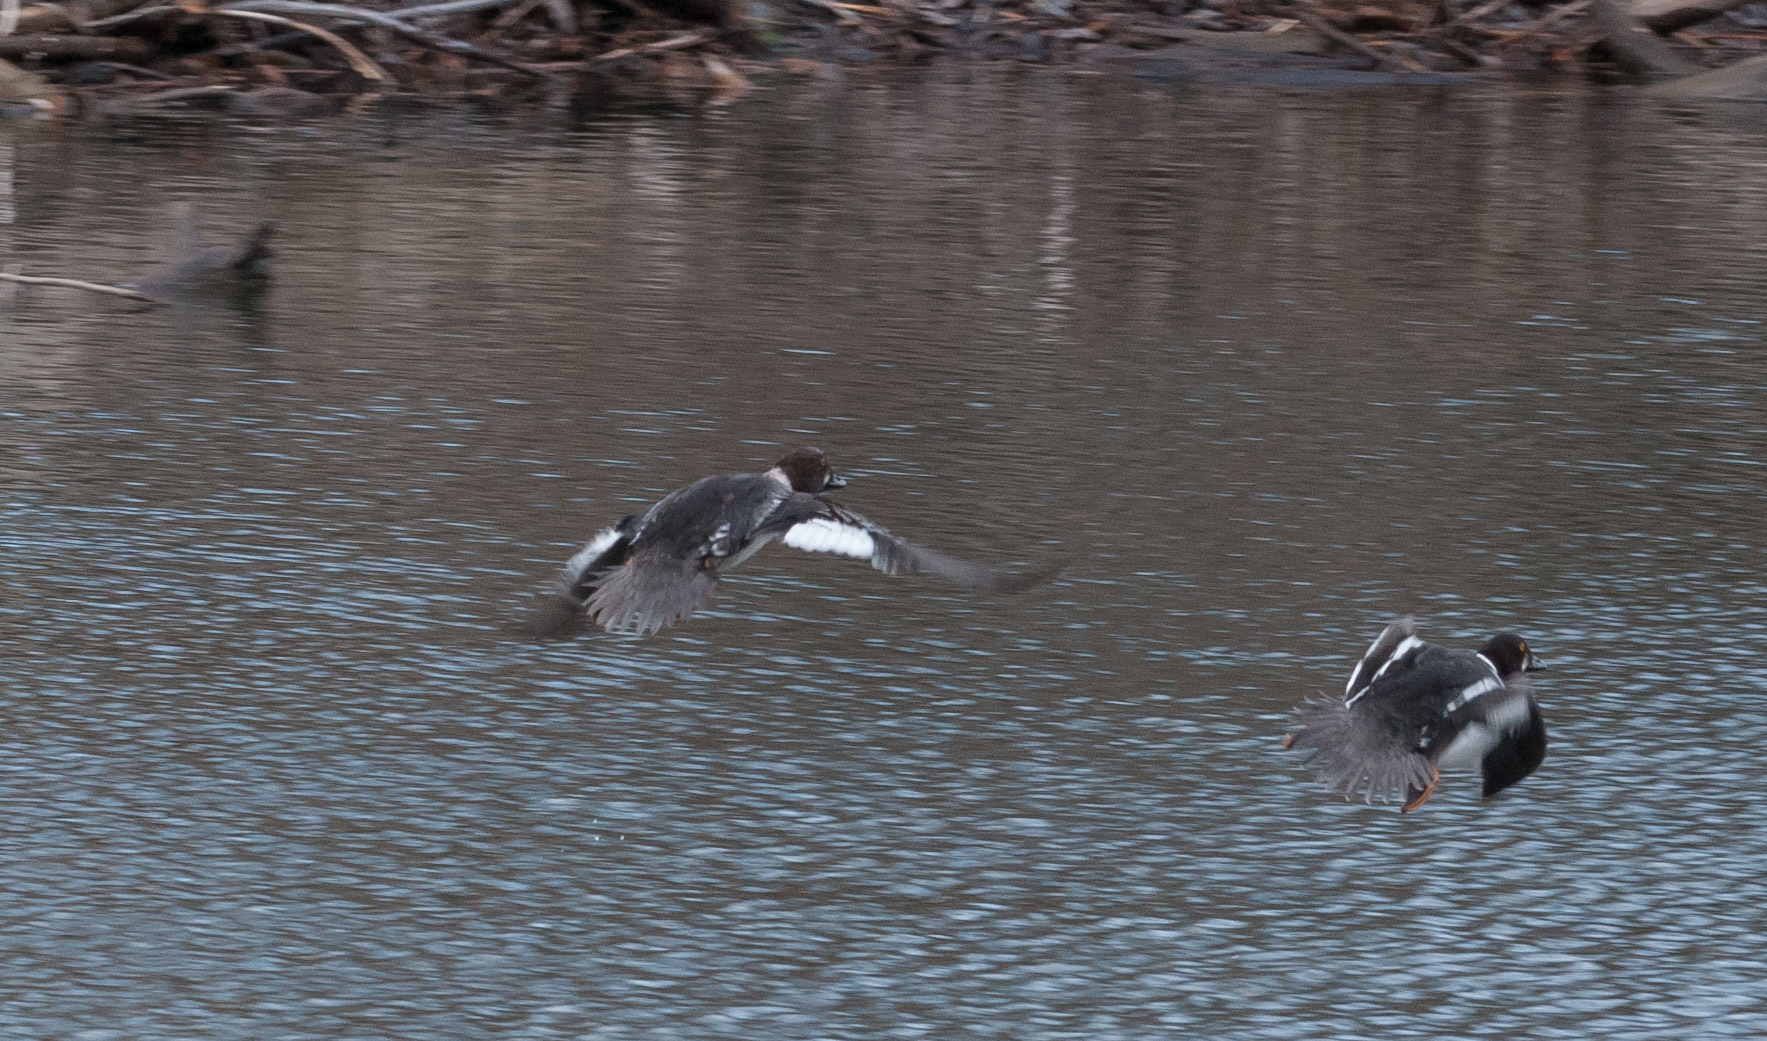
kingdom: Animalia
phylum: Chordata
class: Aves
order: Anseriformes
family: Anatidae
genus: Bucephala
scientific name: Bucephala clangula
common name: Common goldeneye
